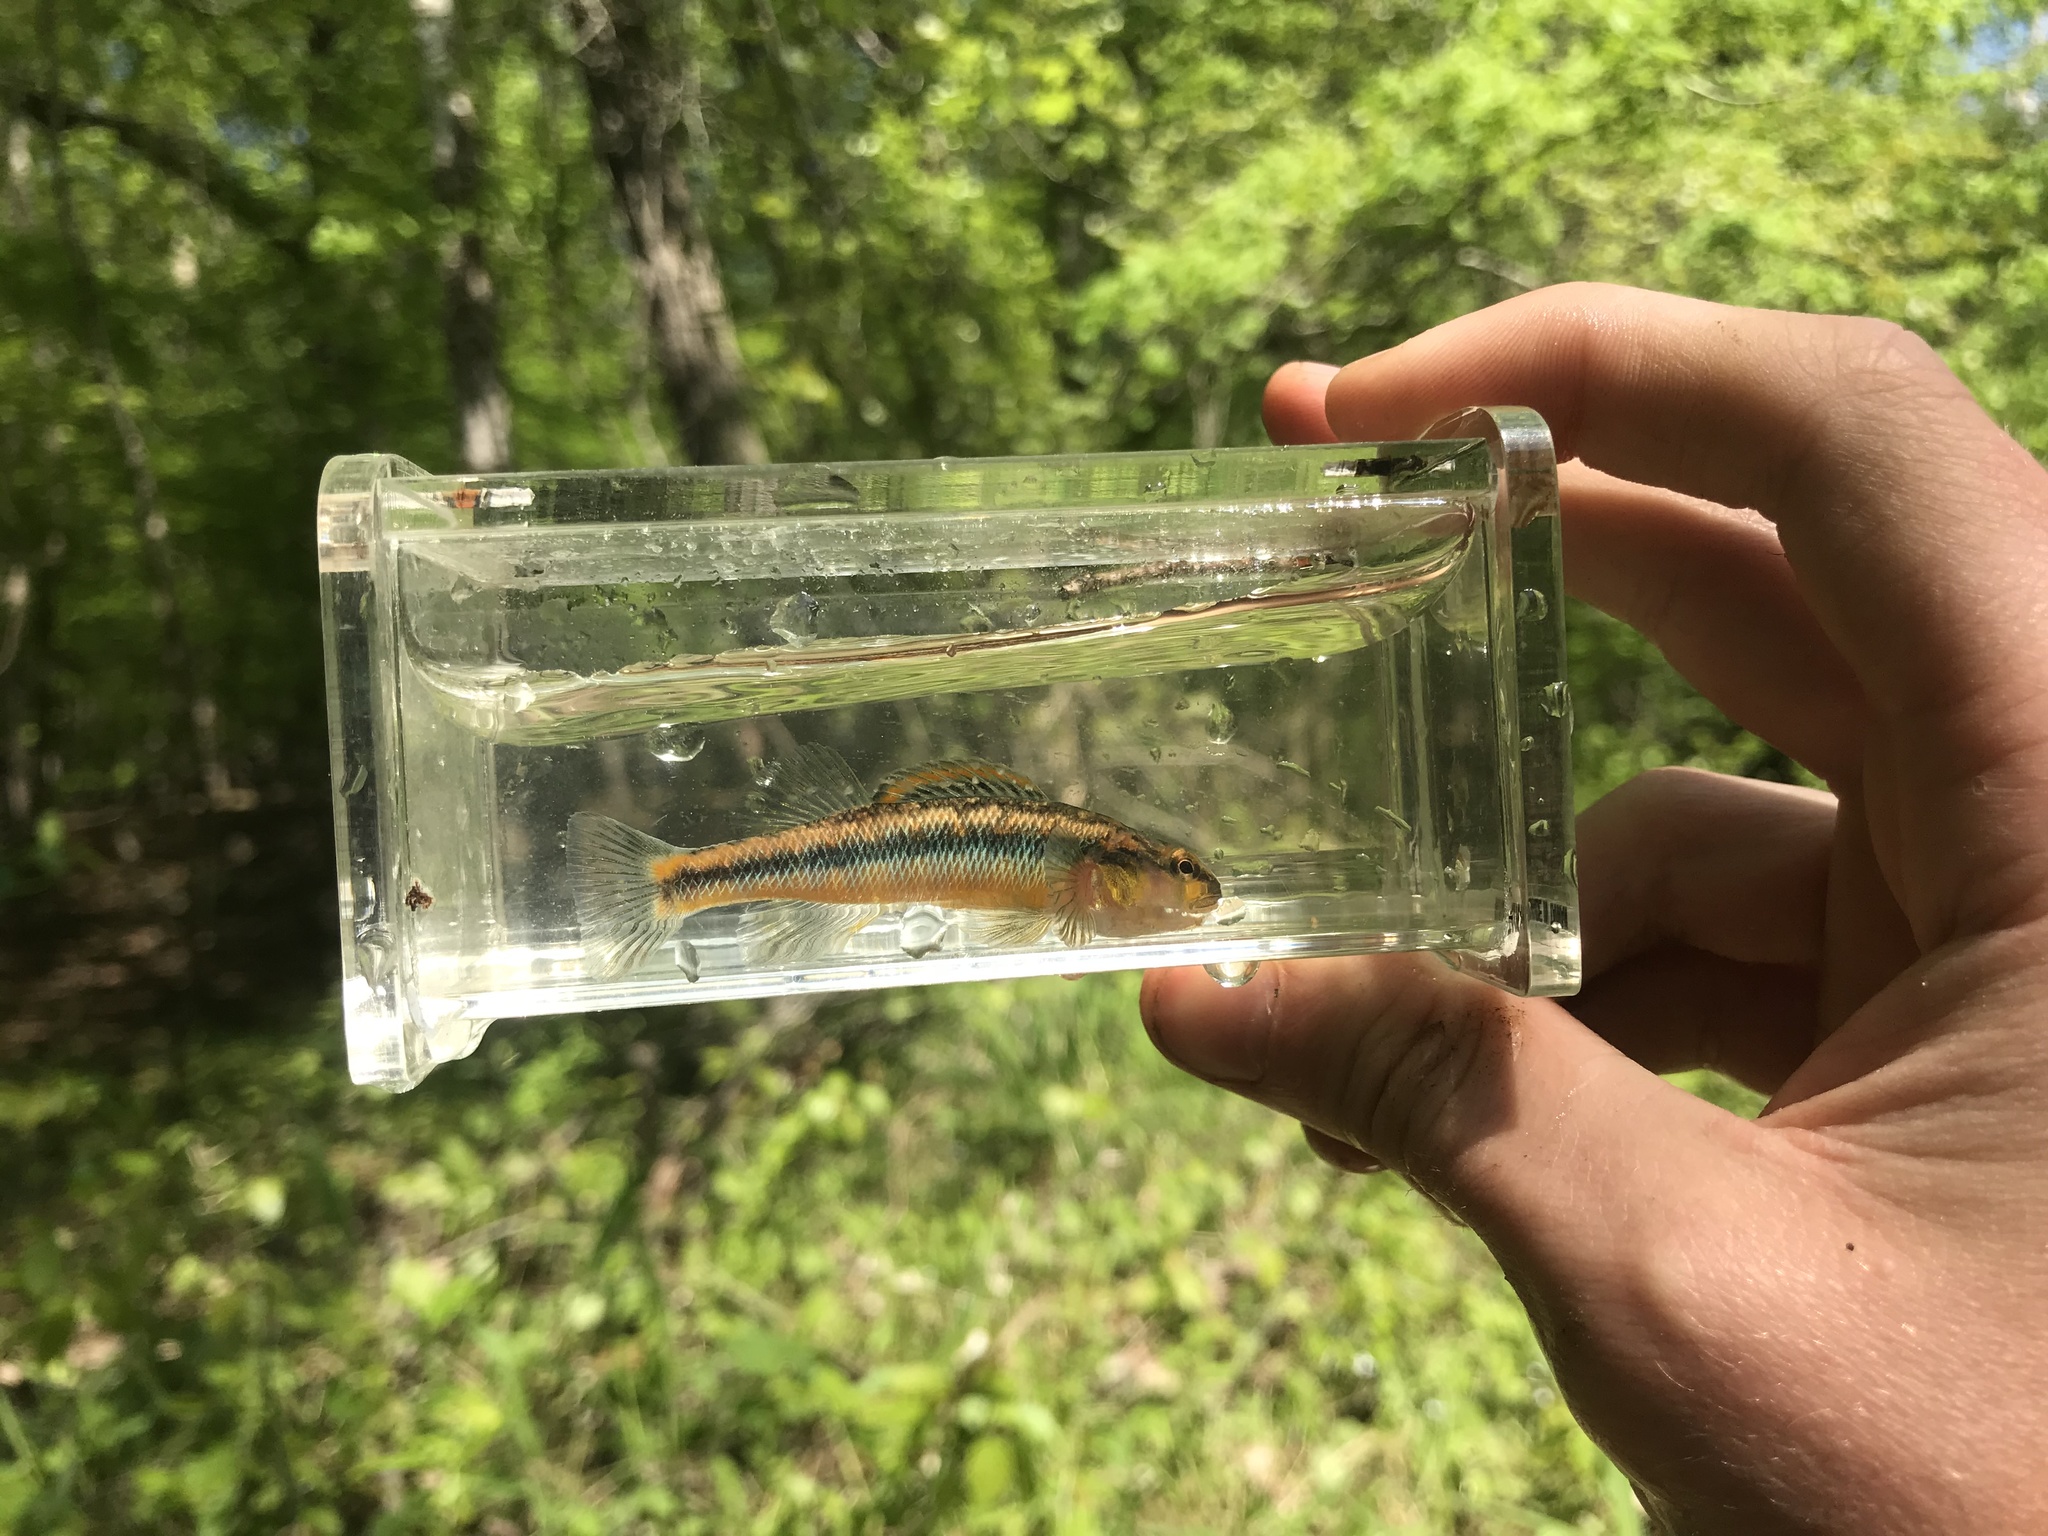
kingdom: Animalia
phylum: Chordata
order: Perciformes
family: Percidae
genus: Percina
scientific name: Percina roanoka
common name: Roanoke darter
